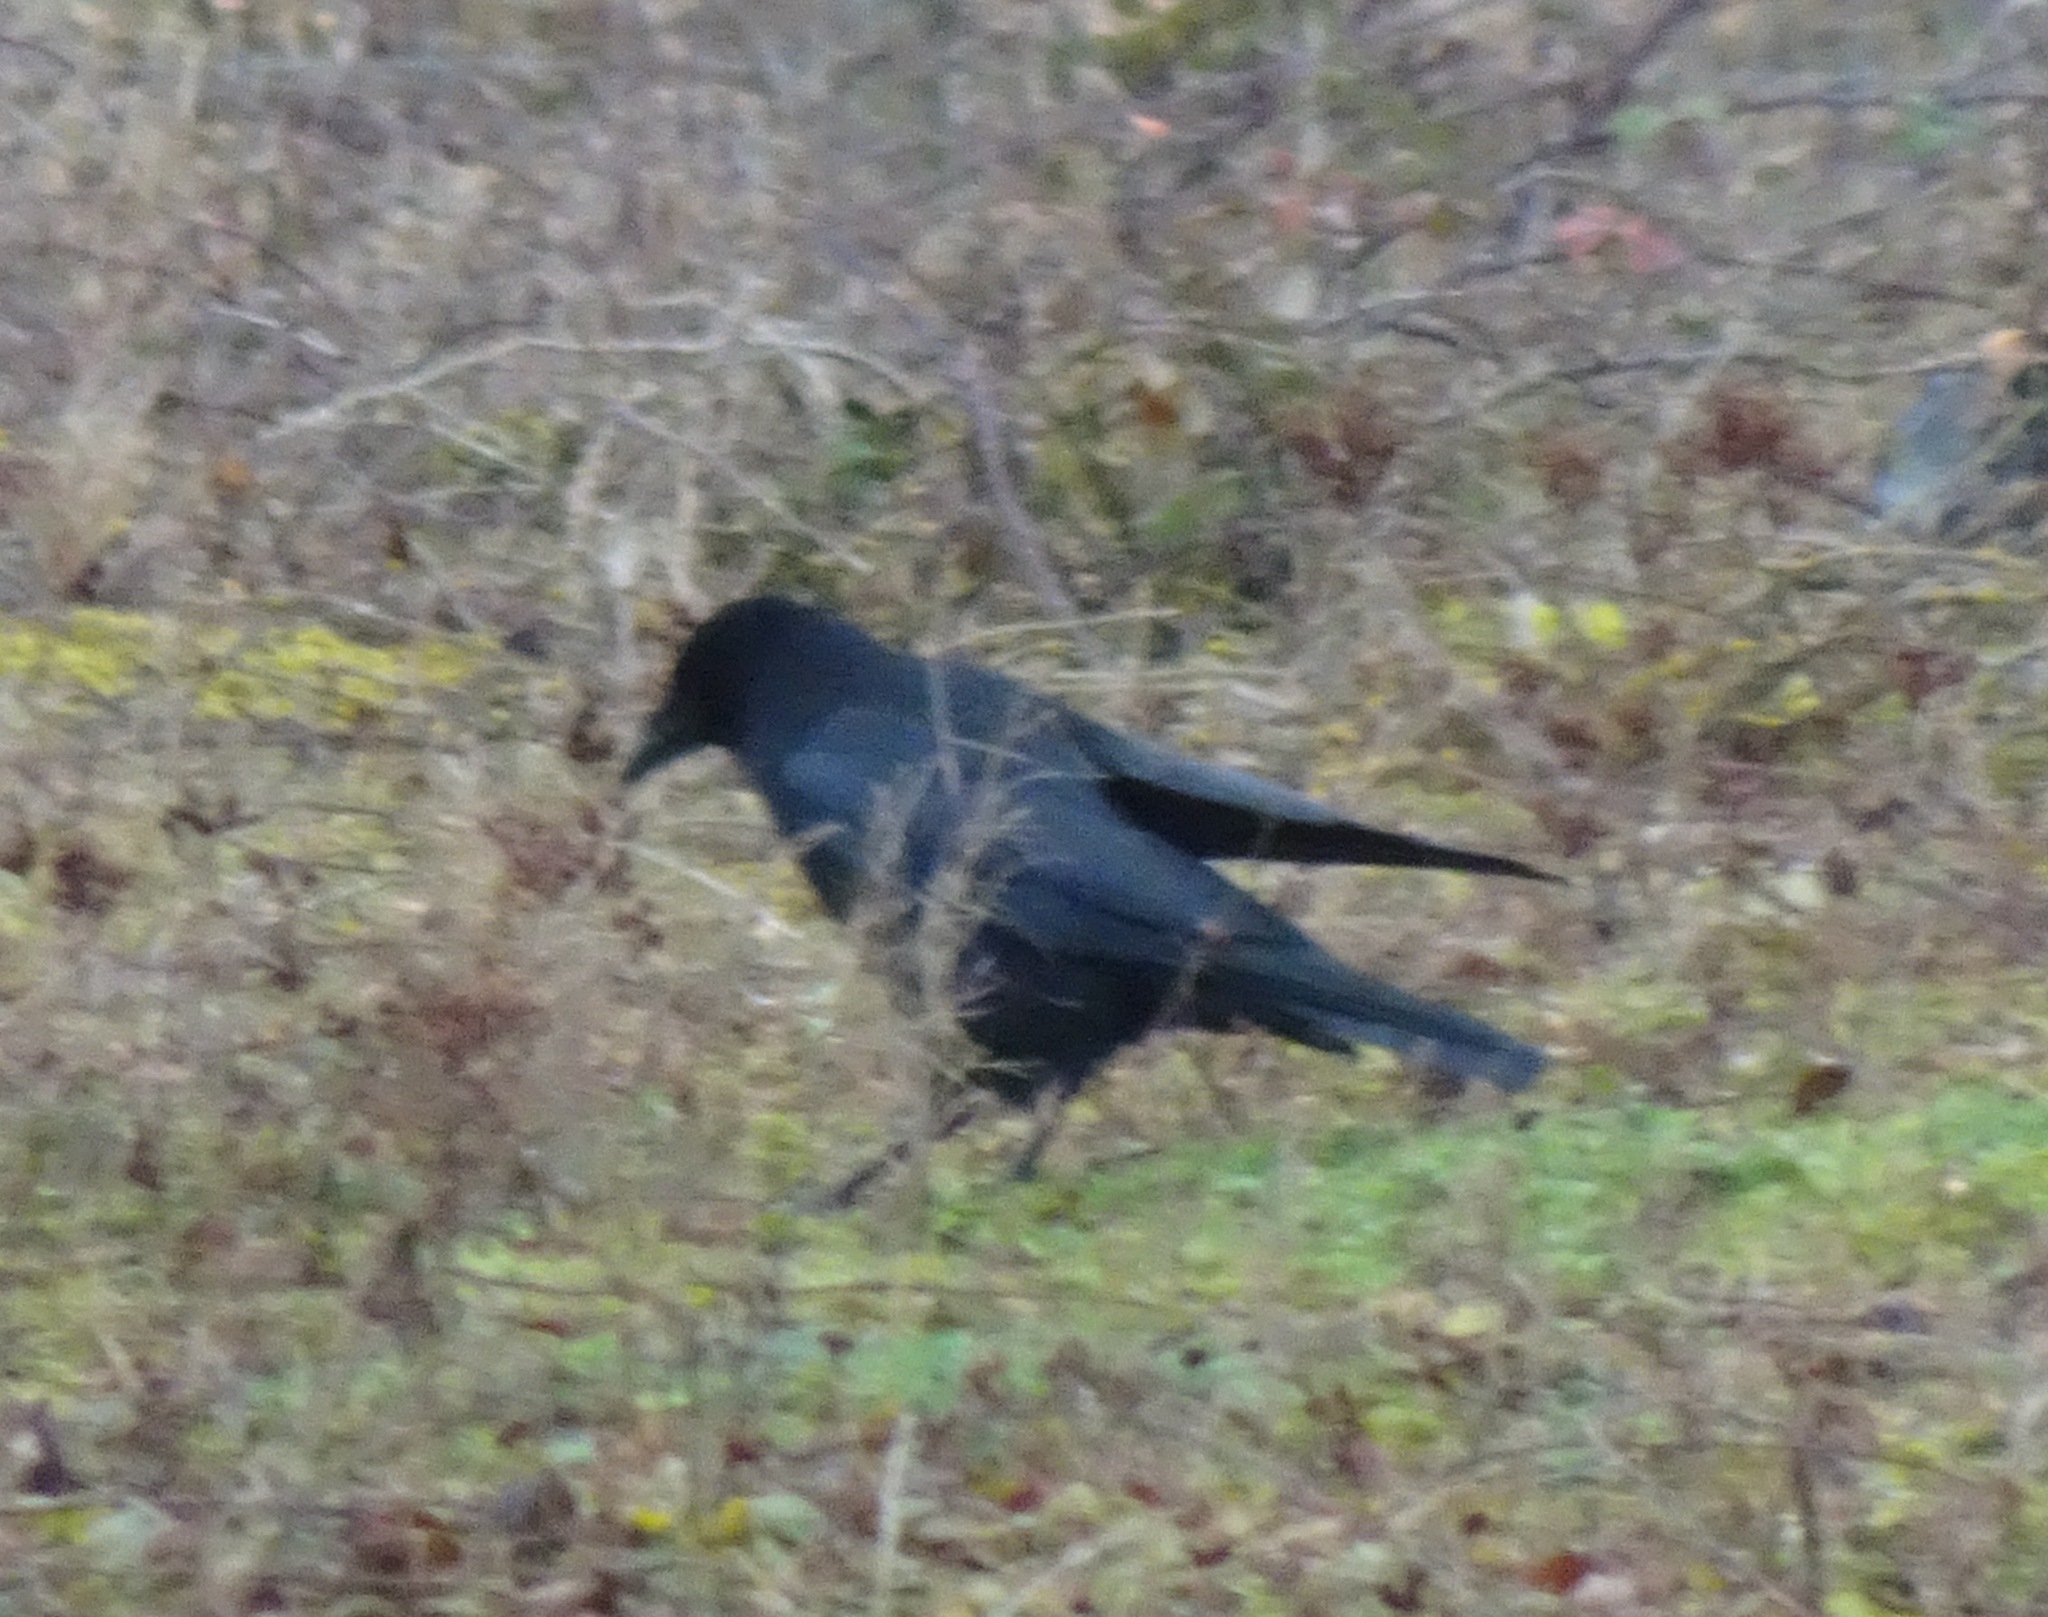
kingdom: Animalia
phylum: Chordata
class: Aves
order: Passeriformes
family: Corvidae
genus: Corvus
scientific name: Corvus corone
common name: Carrion crow
